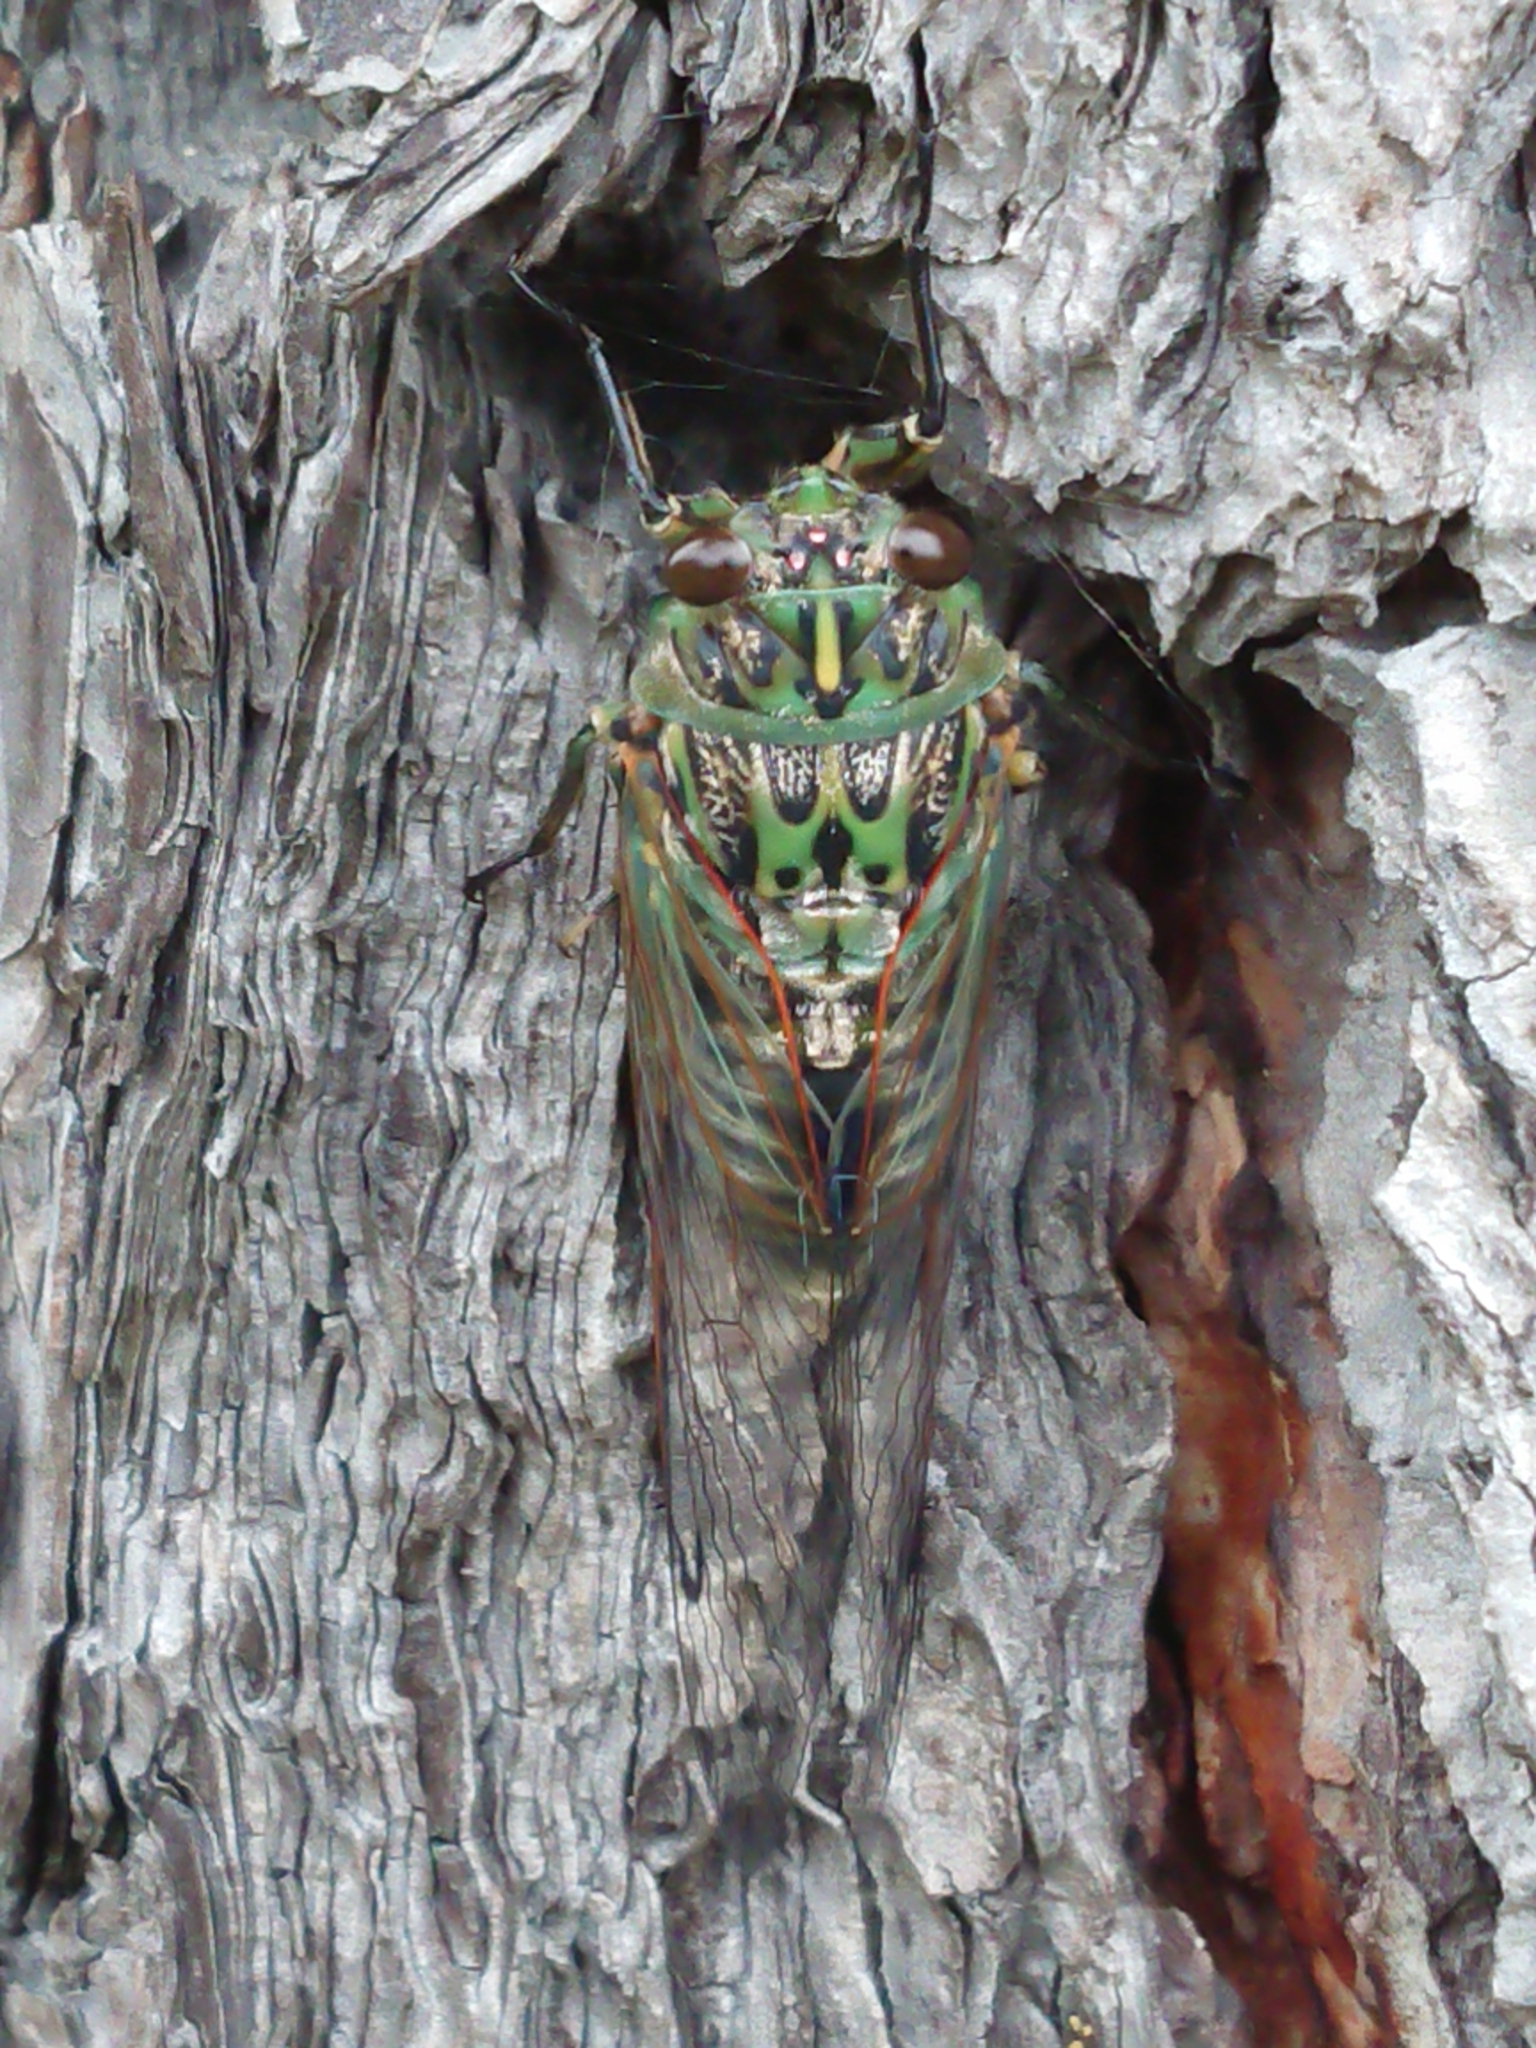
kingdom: Animalia
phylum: Arthropoda
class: Insecta
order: Hemiptera
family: Cicadidae
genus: Amphipsalta
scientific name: Amphipsalta zelandica
